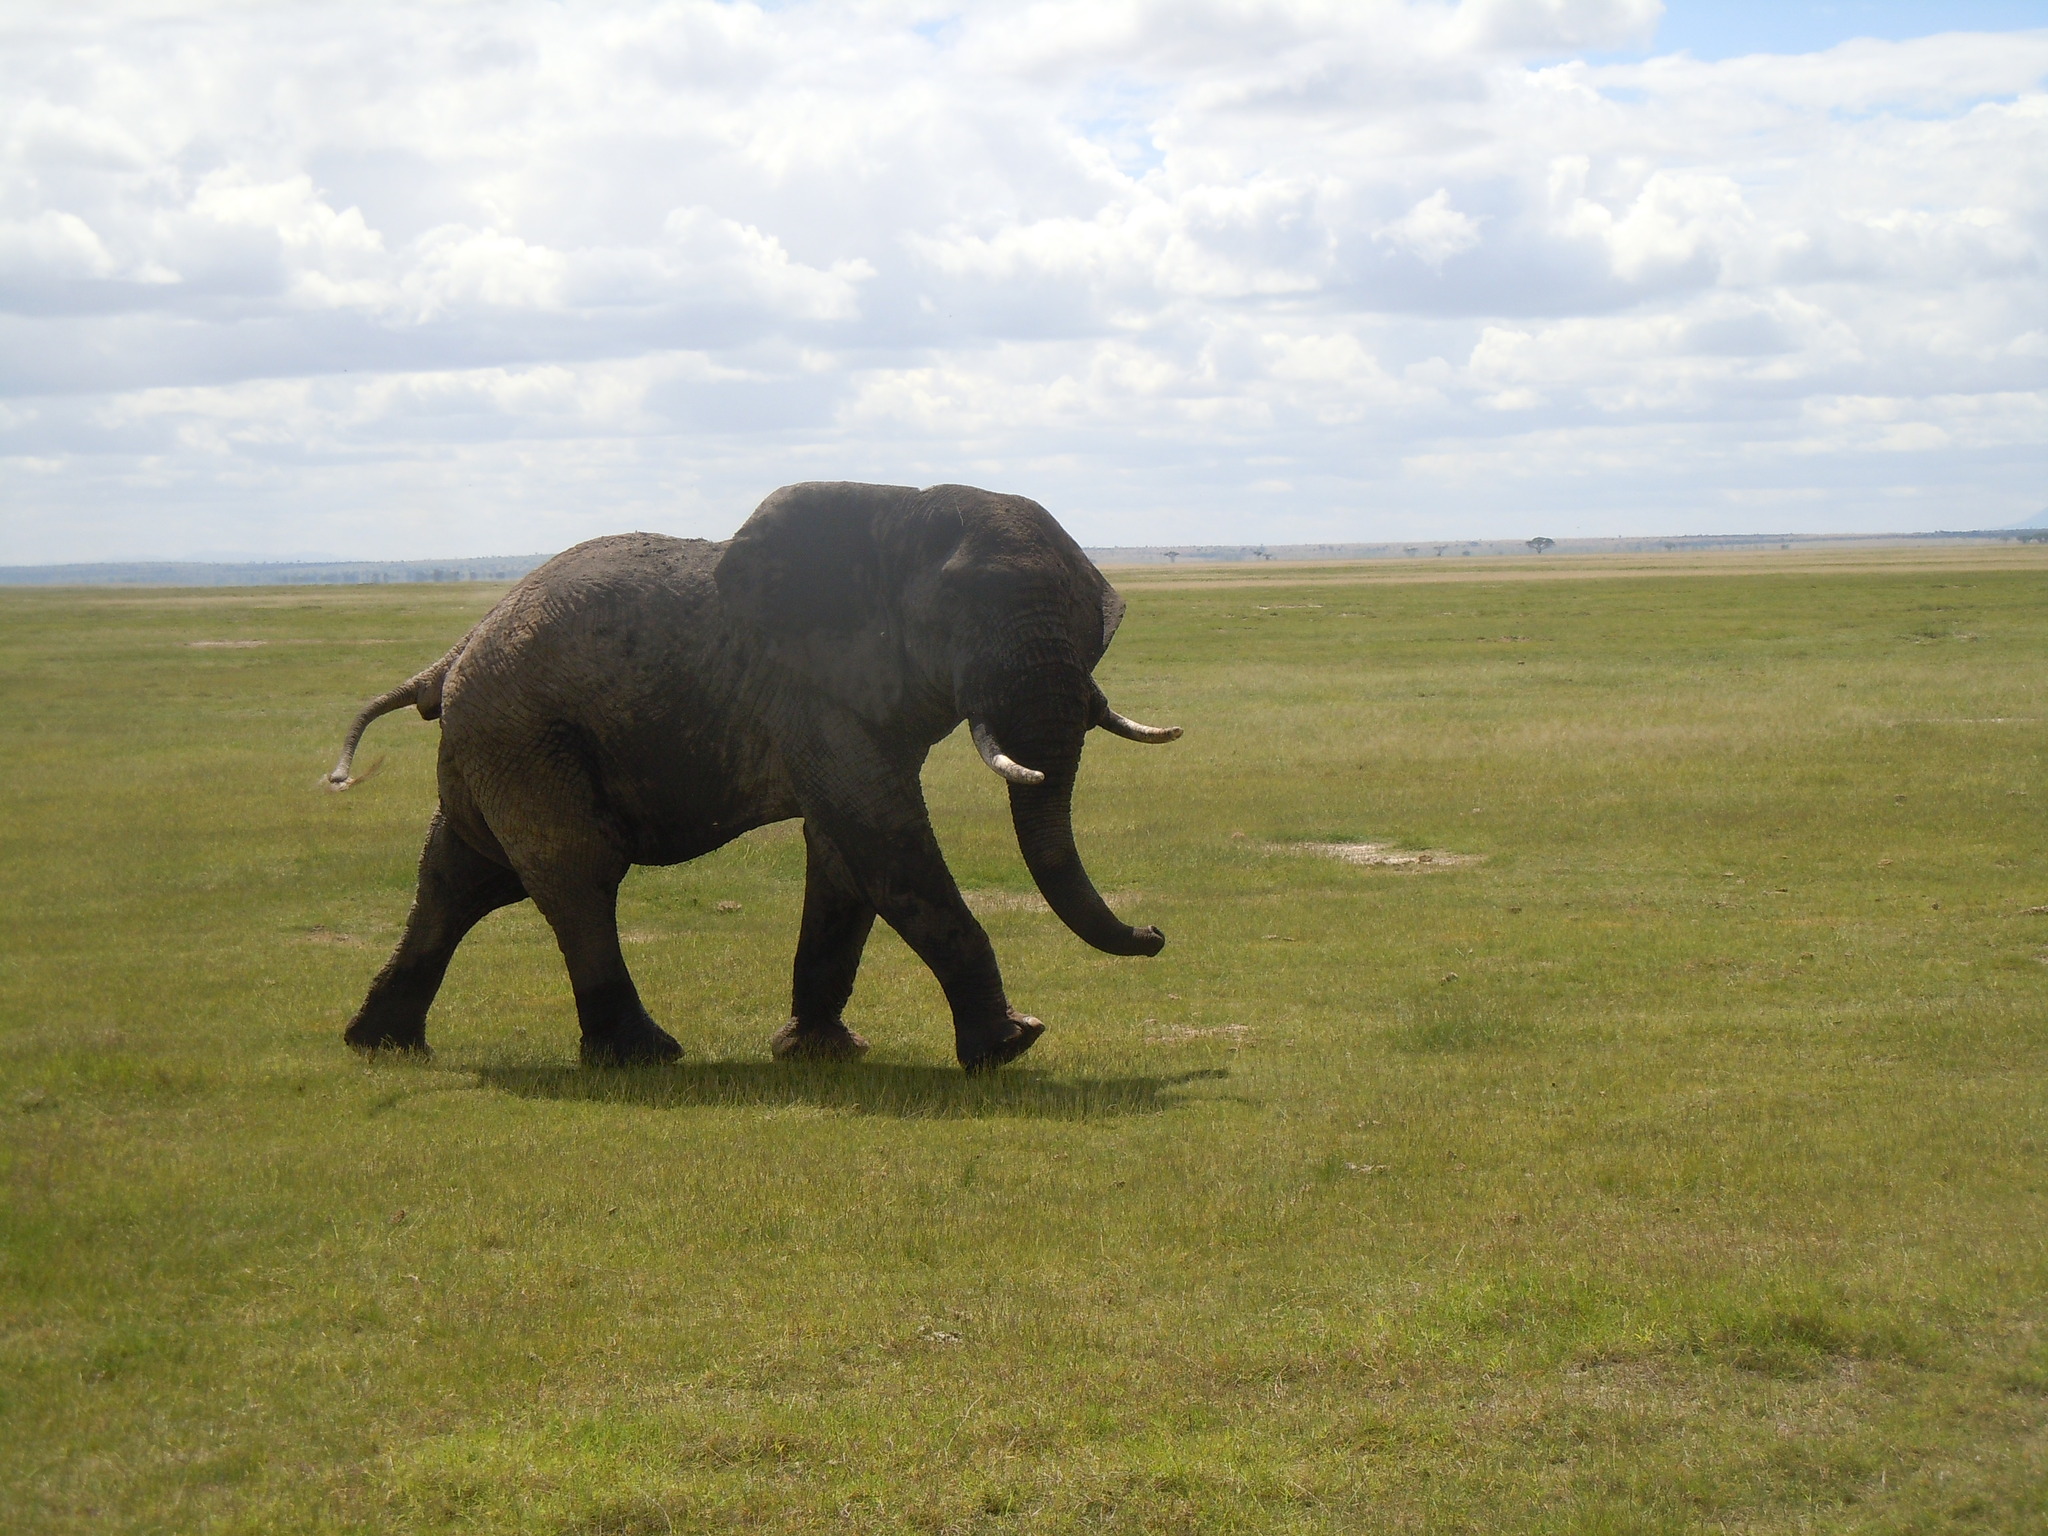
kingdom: Animalia
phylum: Chordata
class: Mammalia
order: Proboscidea
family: Elephantidae
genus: Loxodonta
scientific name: Loxodonta africana
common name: African elephant
